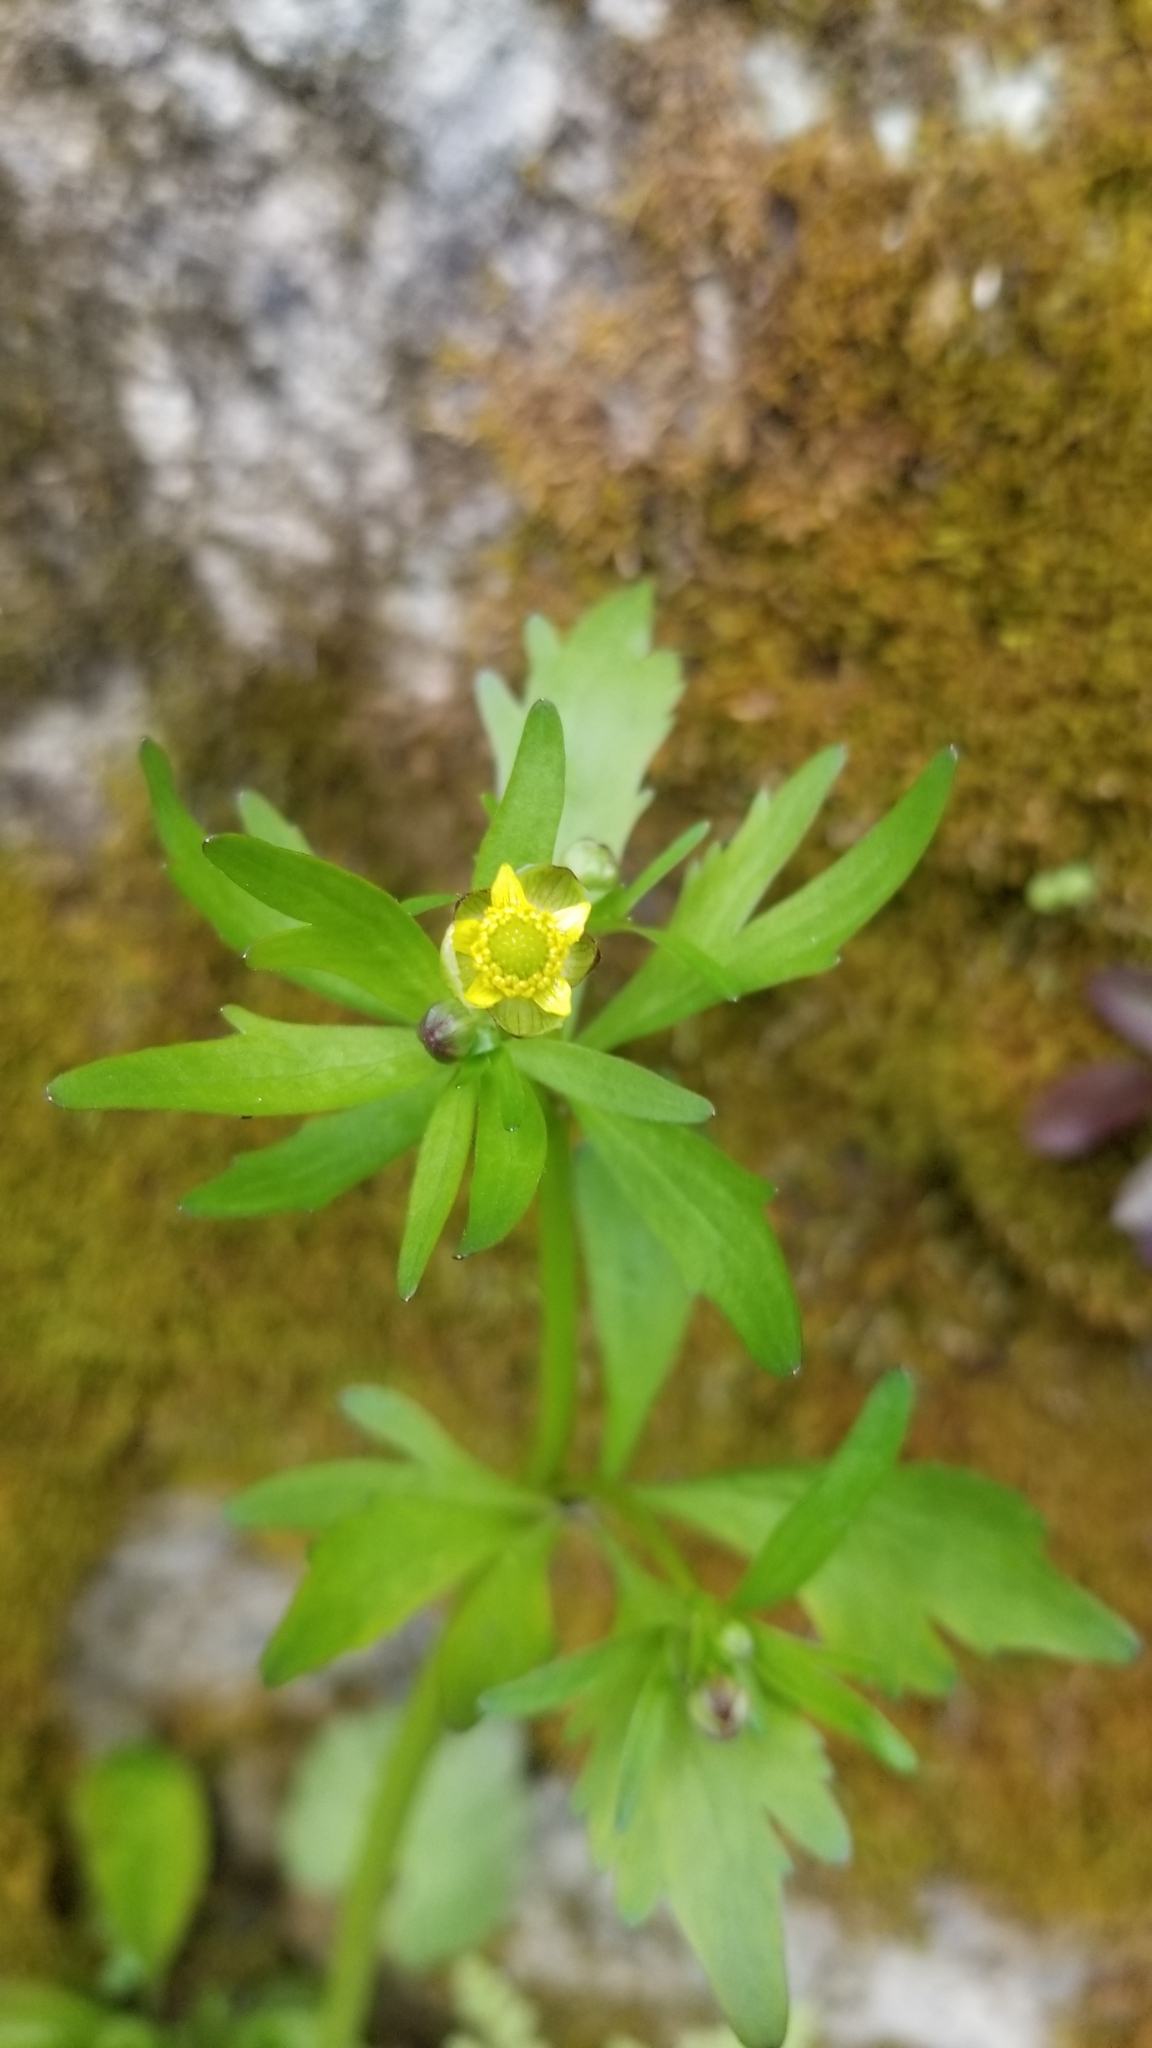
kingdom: Plantae
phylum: Tracheophyta
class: Magnoliopsida
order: Ranunculales
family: Ranunculaceae
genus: Ranunculus
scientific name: Ranunculus abortivus
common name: Early wood buttercup
